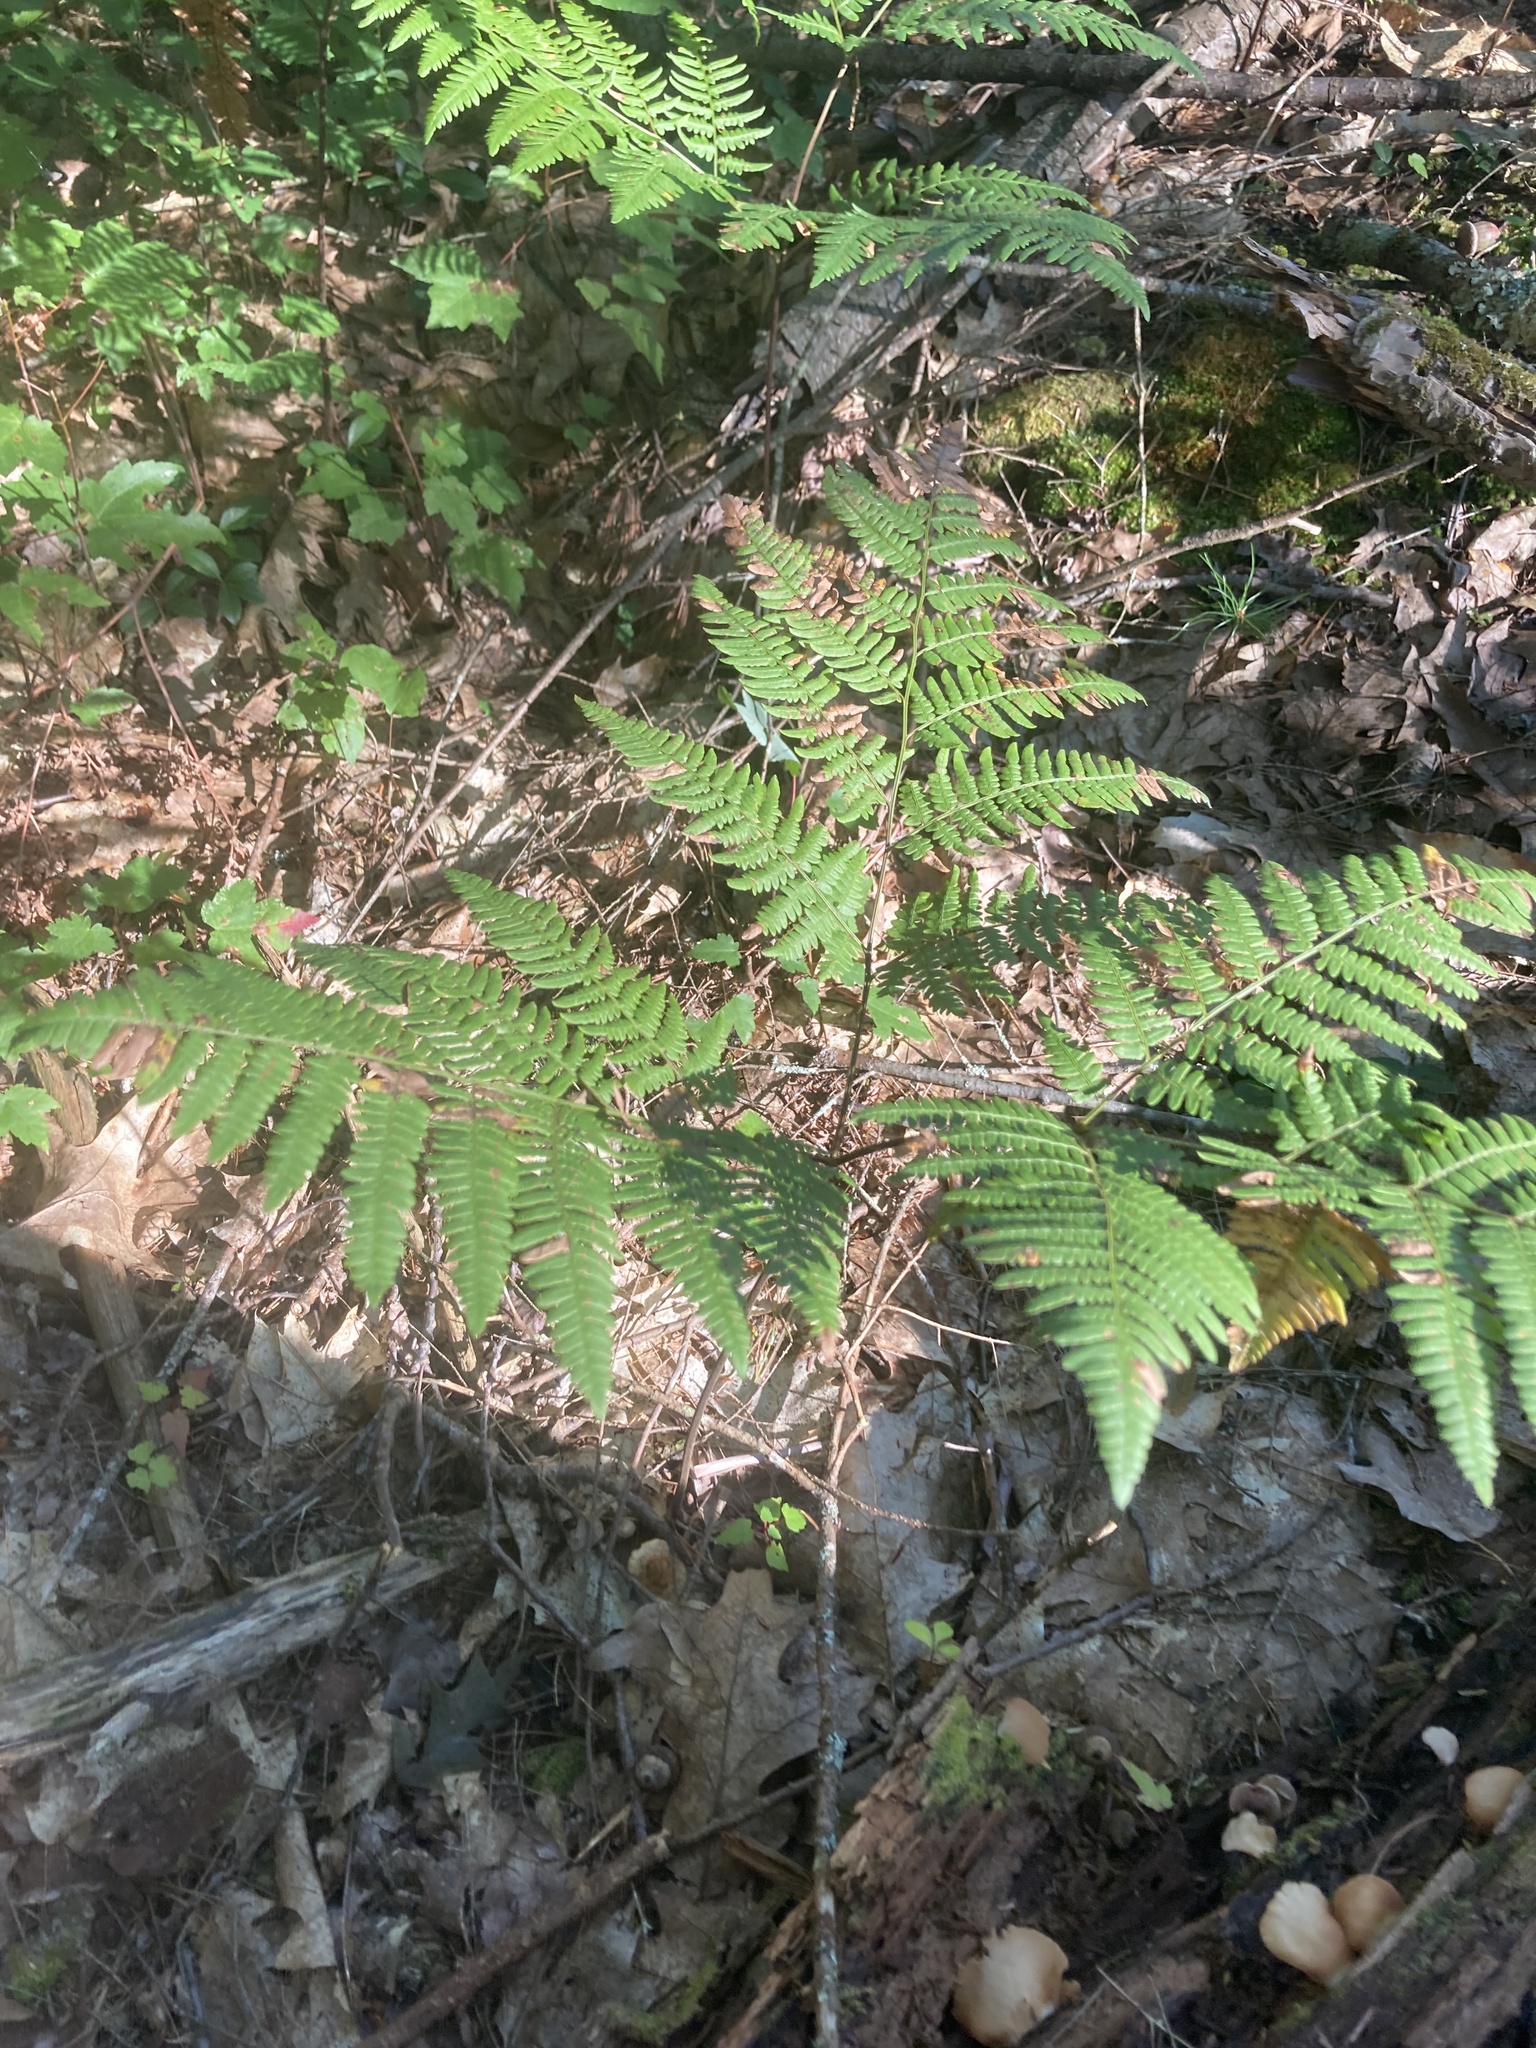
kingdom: Plantae
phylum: Tracheophyta
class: Polypodiopsida
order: Polypodiales
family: Dennstaedtiaceae
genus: Pteridium
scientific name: Pteridium aquilinum
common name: Bracken
